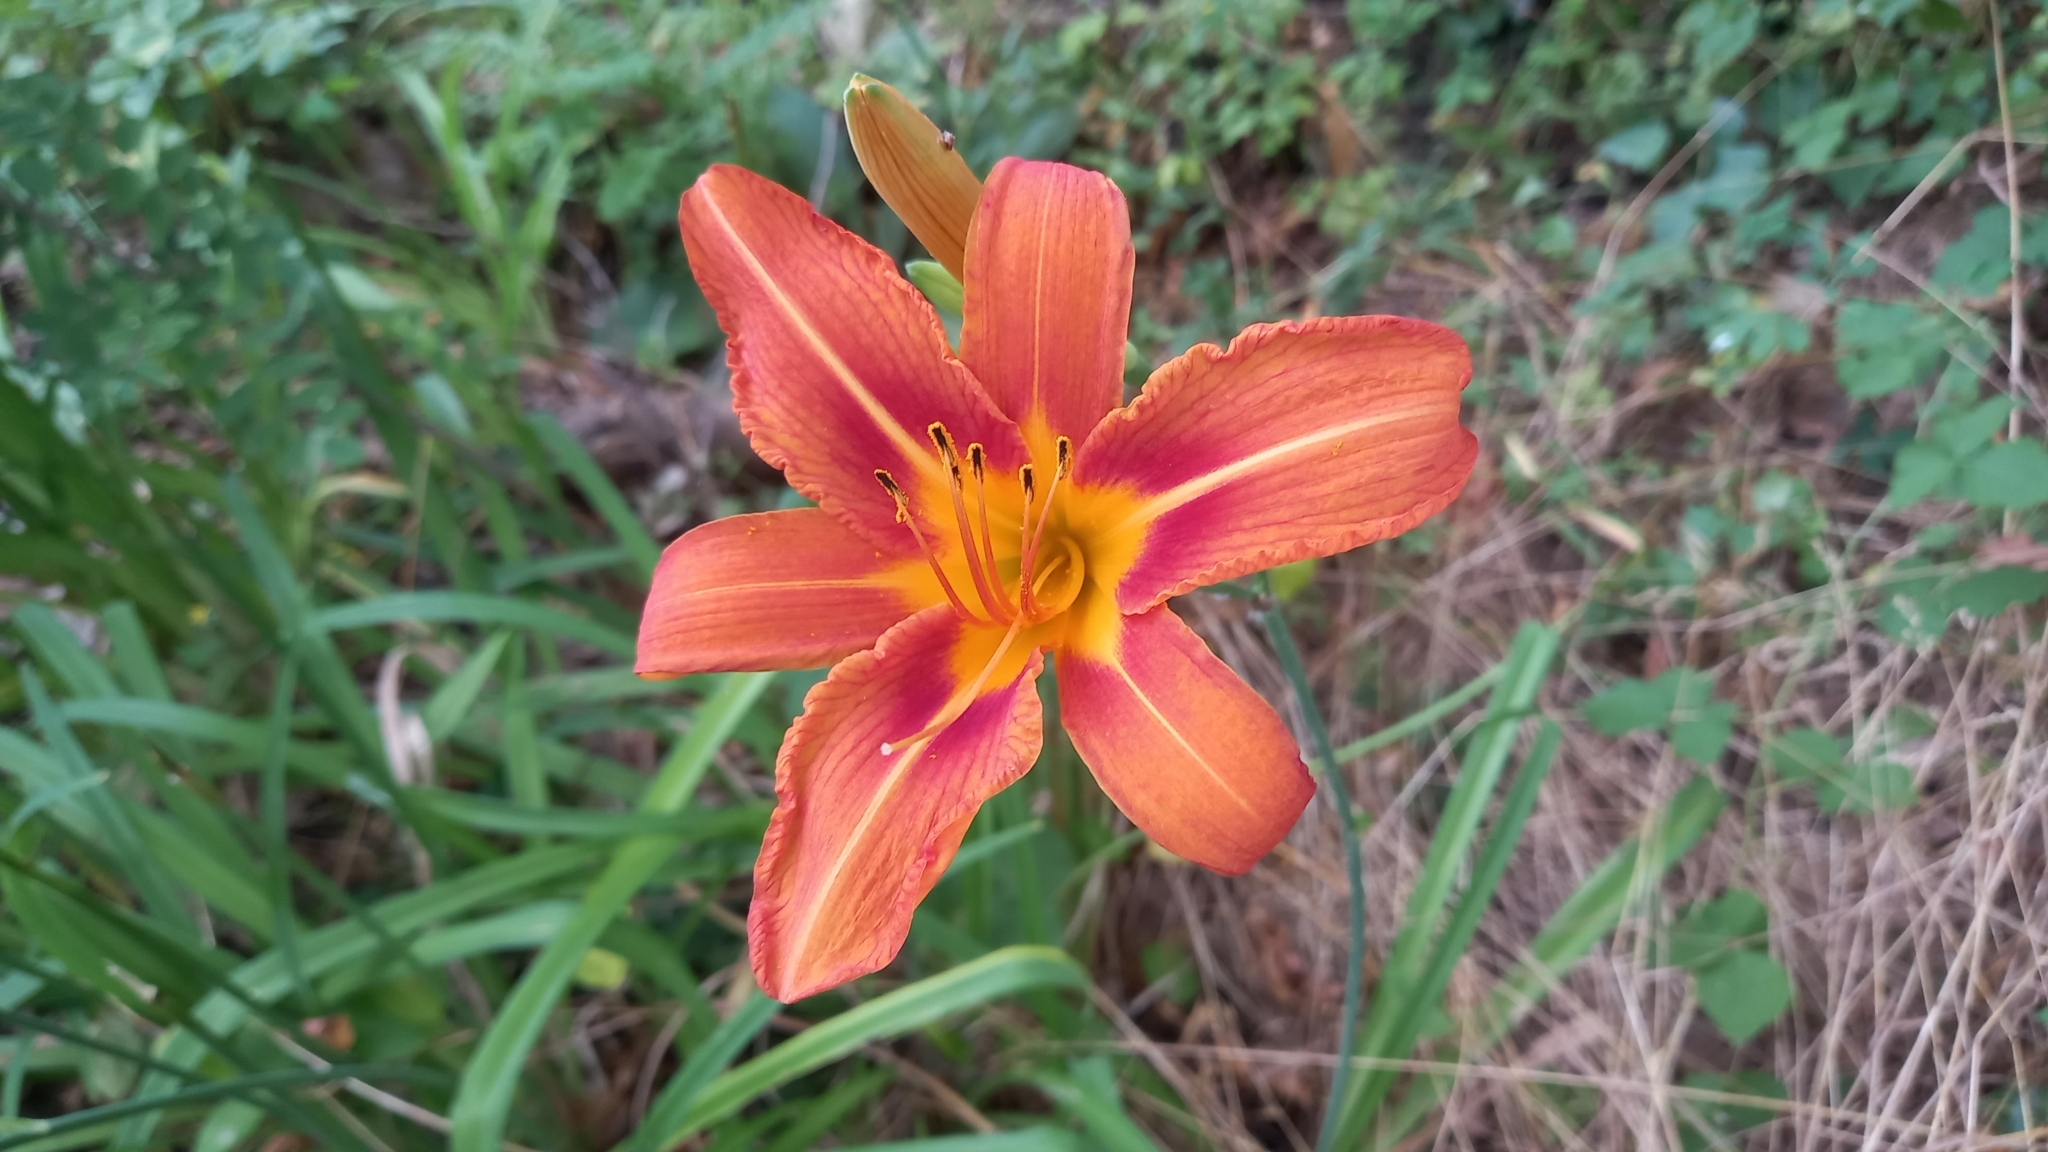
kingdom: Plantae
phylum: Tracheophyta
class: Liliopsida
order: Asparagales
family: Asphodelaceae
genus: Hemerocallis
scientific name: Hemerocallis fulva
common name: Orange day-lily
